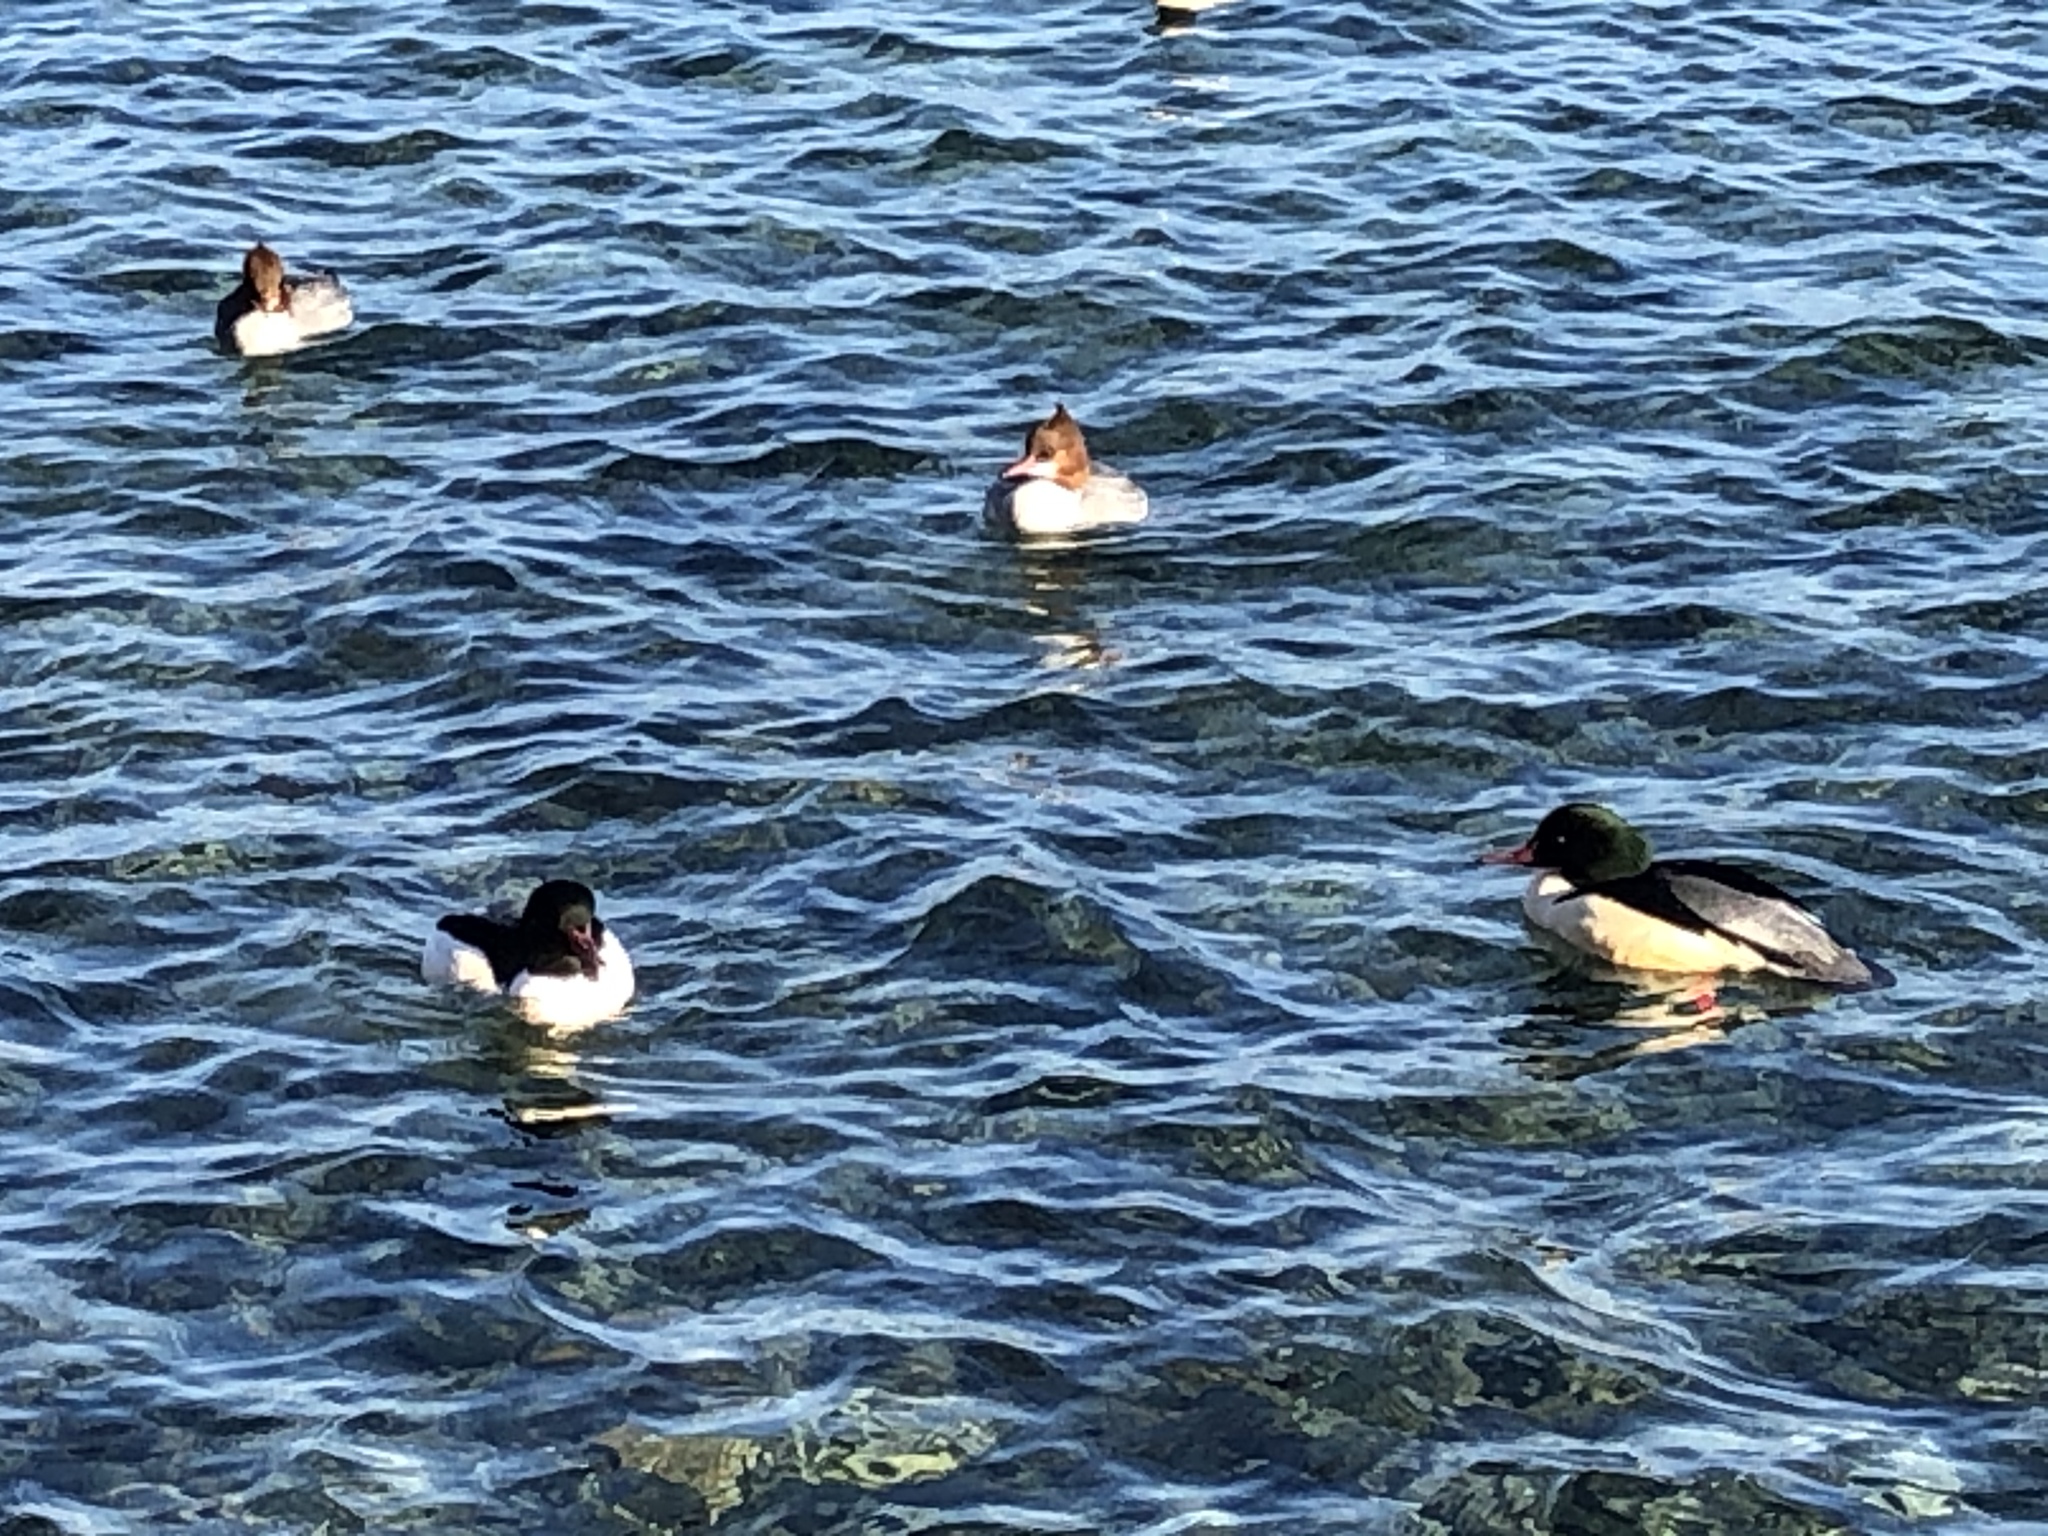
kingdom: Animalia
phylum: Chordata
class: Aves
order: Anseriformes
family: Anatidae
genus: Mergus
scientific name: Mergus merganser
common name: Common merganser
